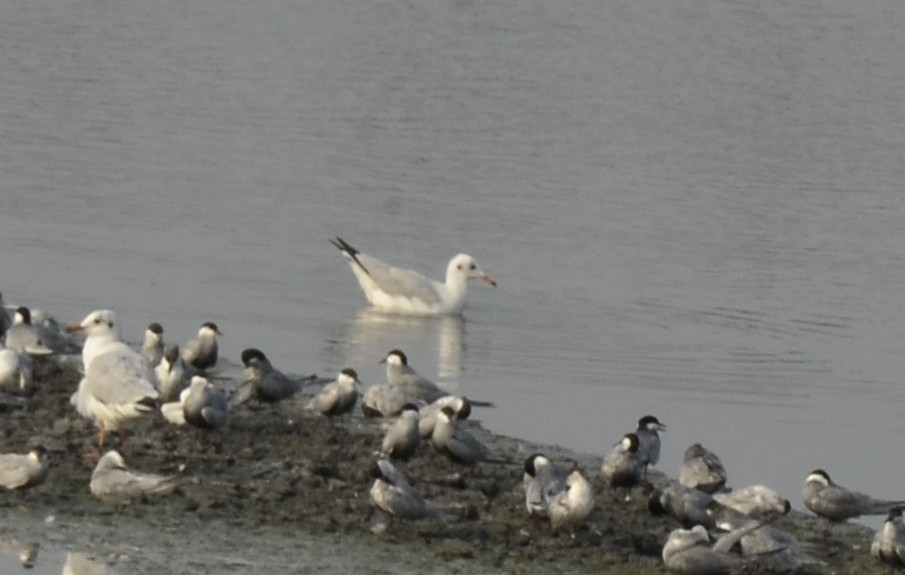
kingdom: Animalia
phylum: Chordata
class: Aves
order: Charadriiformes
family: Laridae
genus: Chroicocephalus
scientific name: Chroicocephalus brunnicephalus
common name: Brown-headed gull
